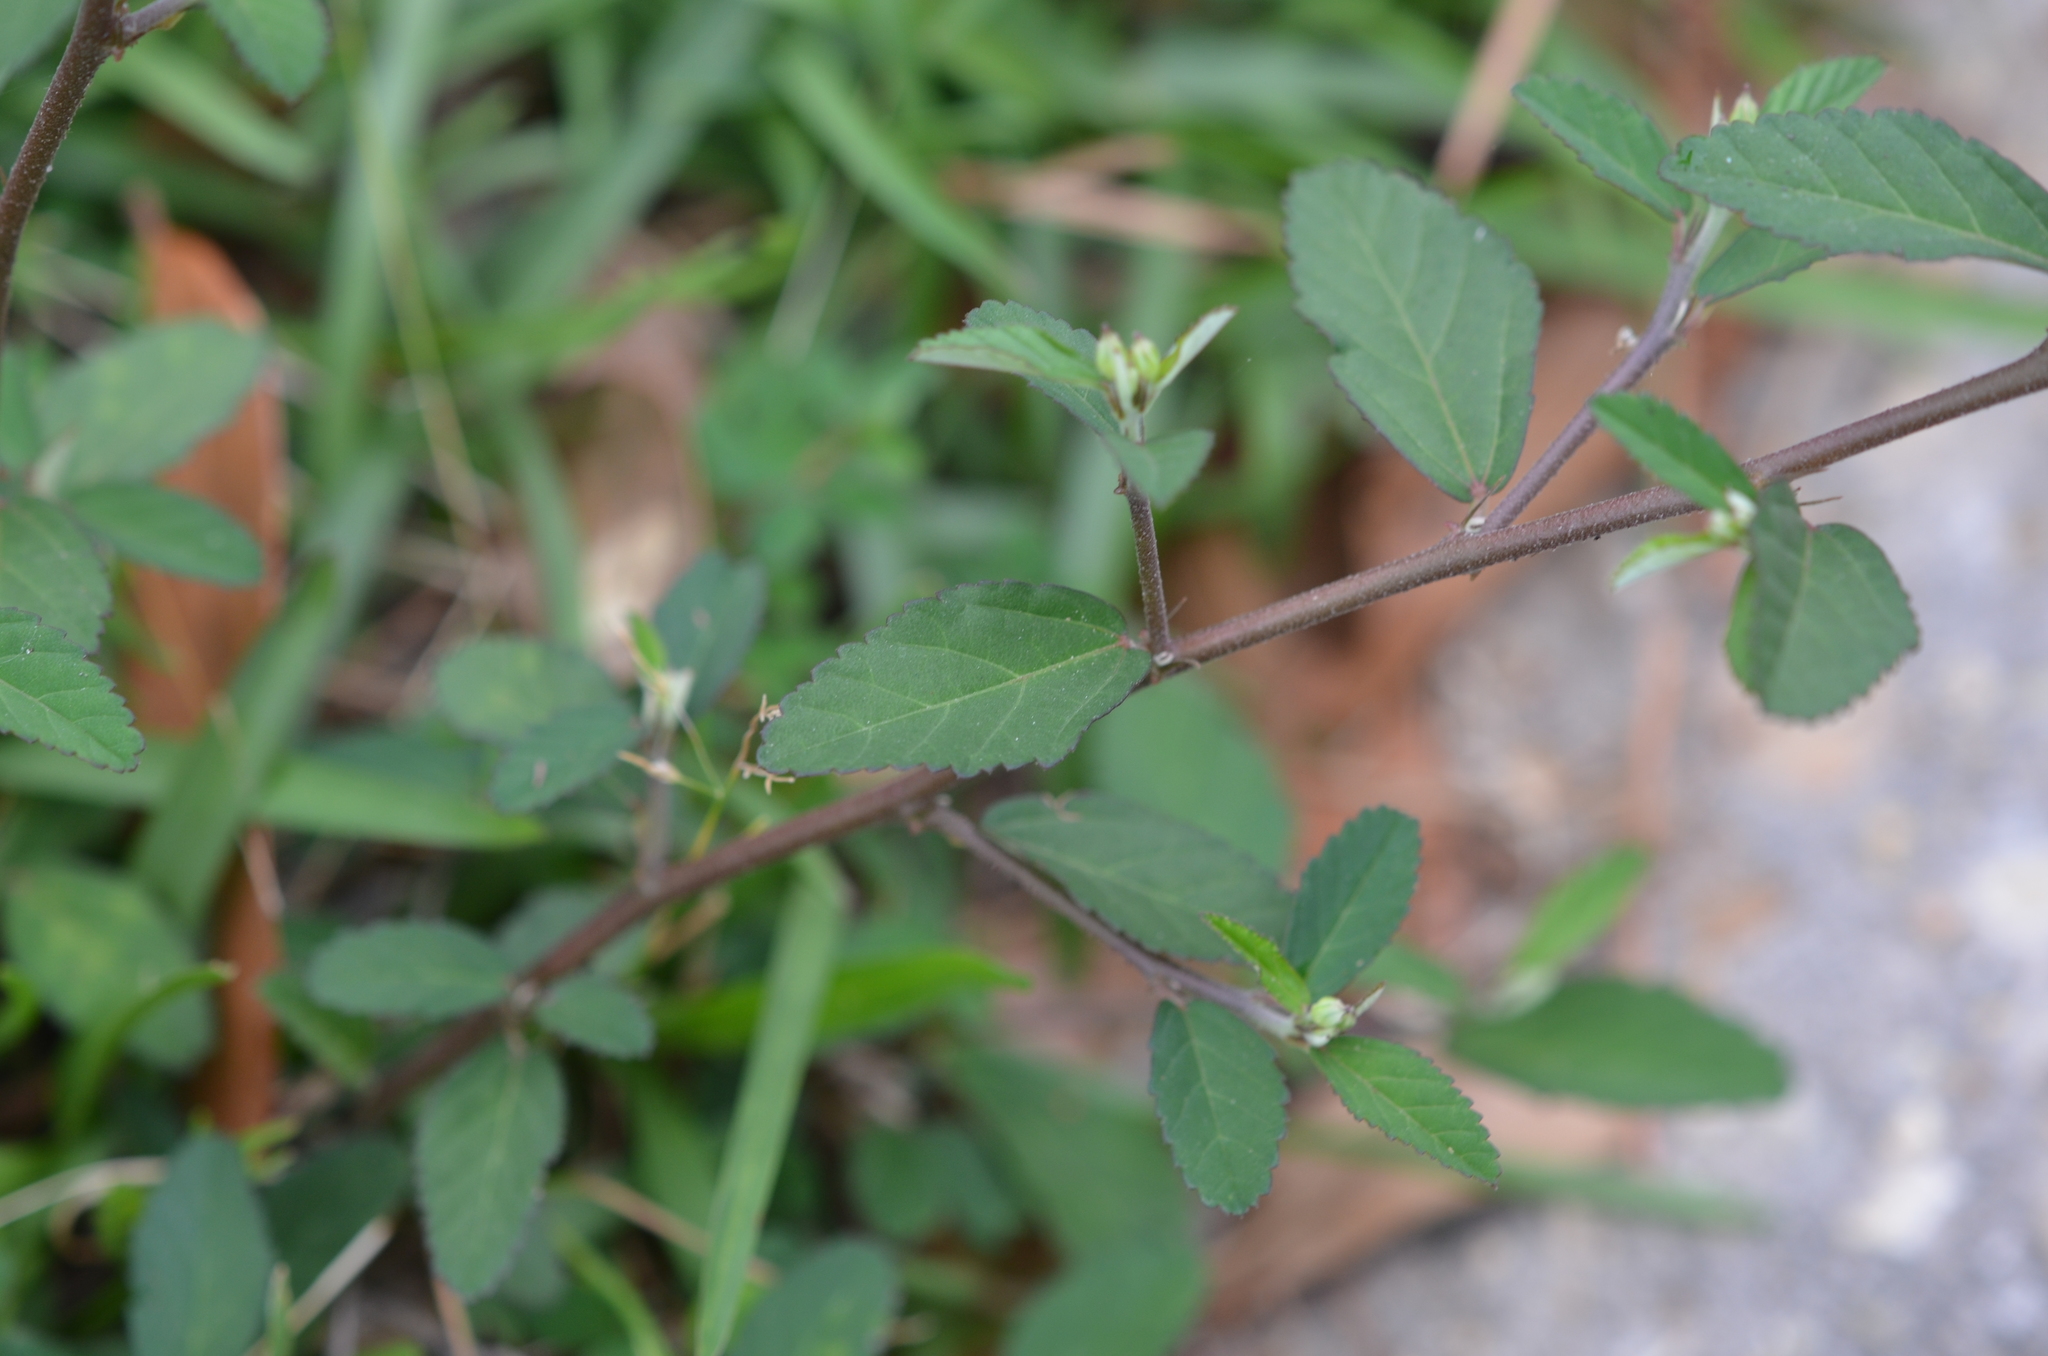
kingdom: Plantae
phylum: Tracheophyta
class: Magnoliopsida
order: Malvales
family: Malvaceae
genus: Sida
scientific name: Sida rhombifolia
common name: Queensland-hemp
